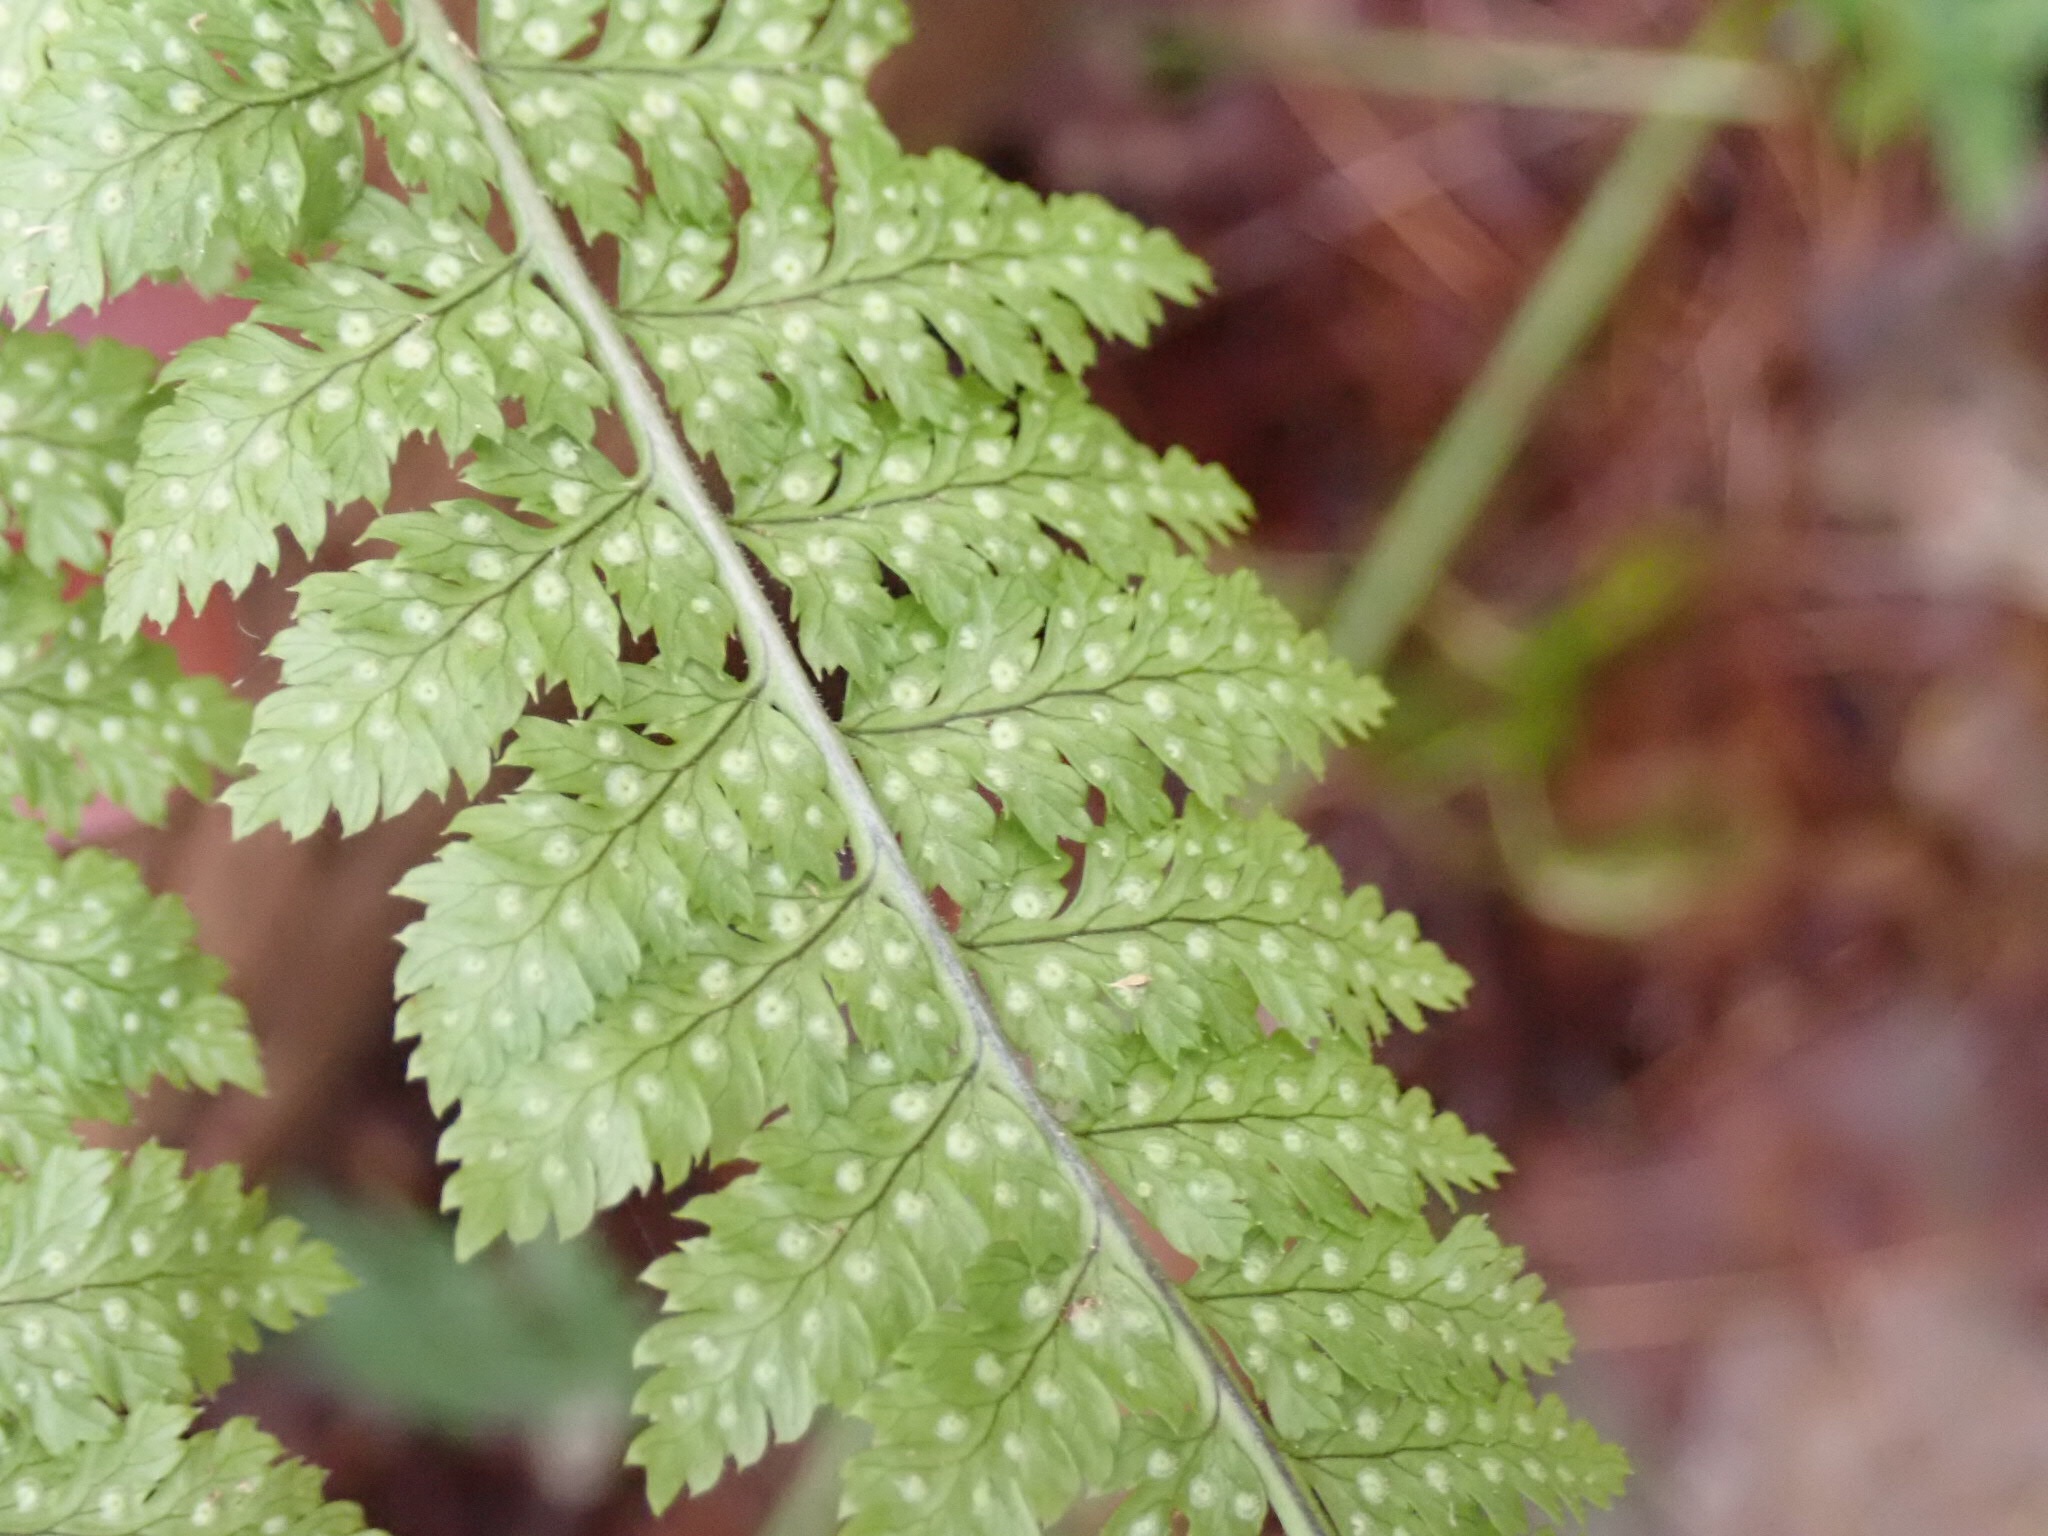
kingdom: Plantae
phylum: Tracheophyta
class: Polypodiopsida
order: Polypodiales
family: Dryopteridaceae
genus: Dryopteris
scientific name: Dryopteris intermedia
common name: Evergreen wood fern
